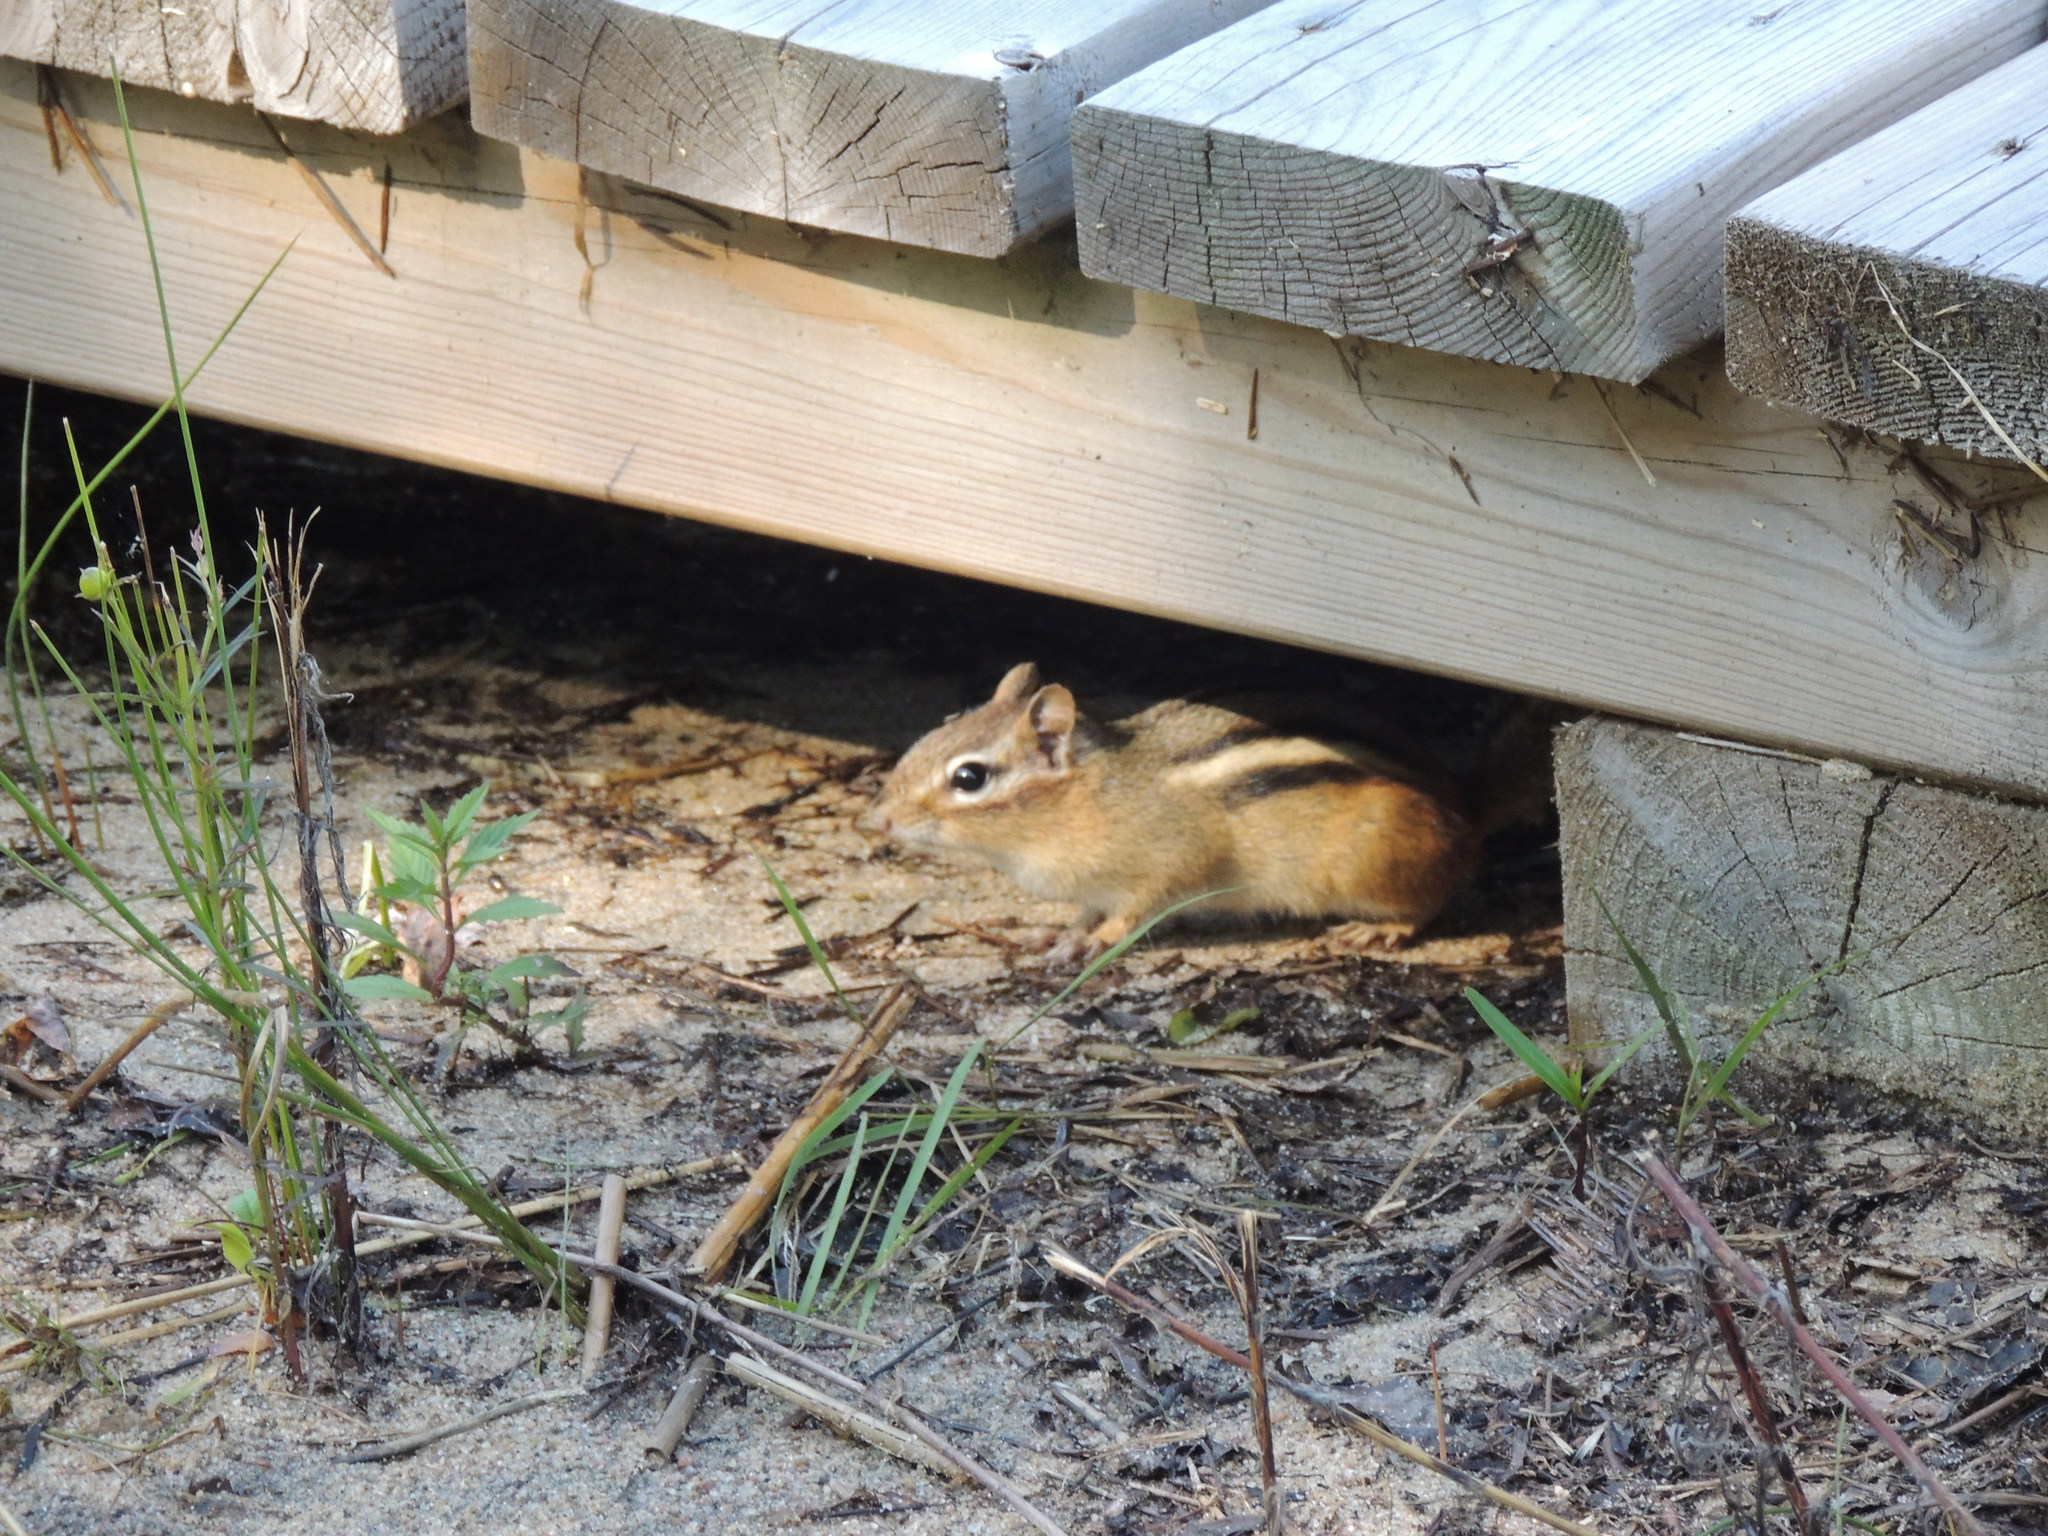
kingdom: Animalia
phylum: Chordata
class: Mammalia
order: Rodentia
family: Sciuridae
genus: Tamias
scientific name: Tamias striatus
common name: Eastern chipmunk
